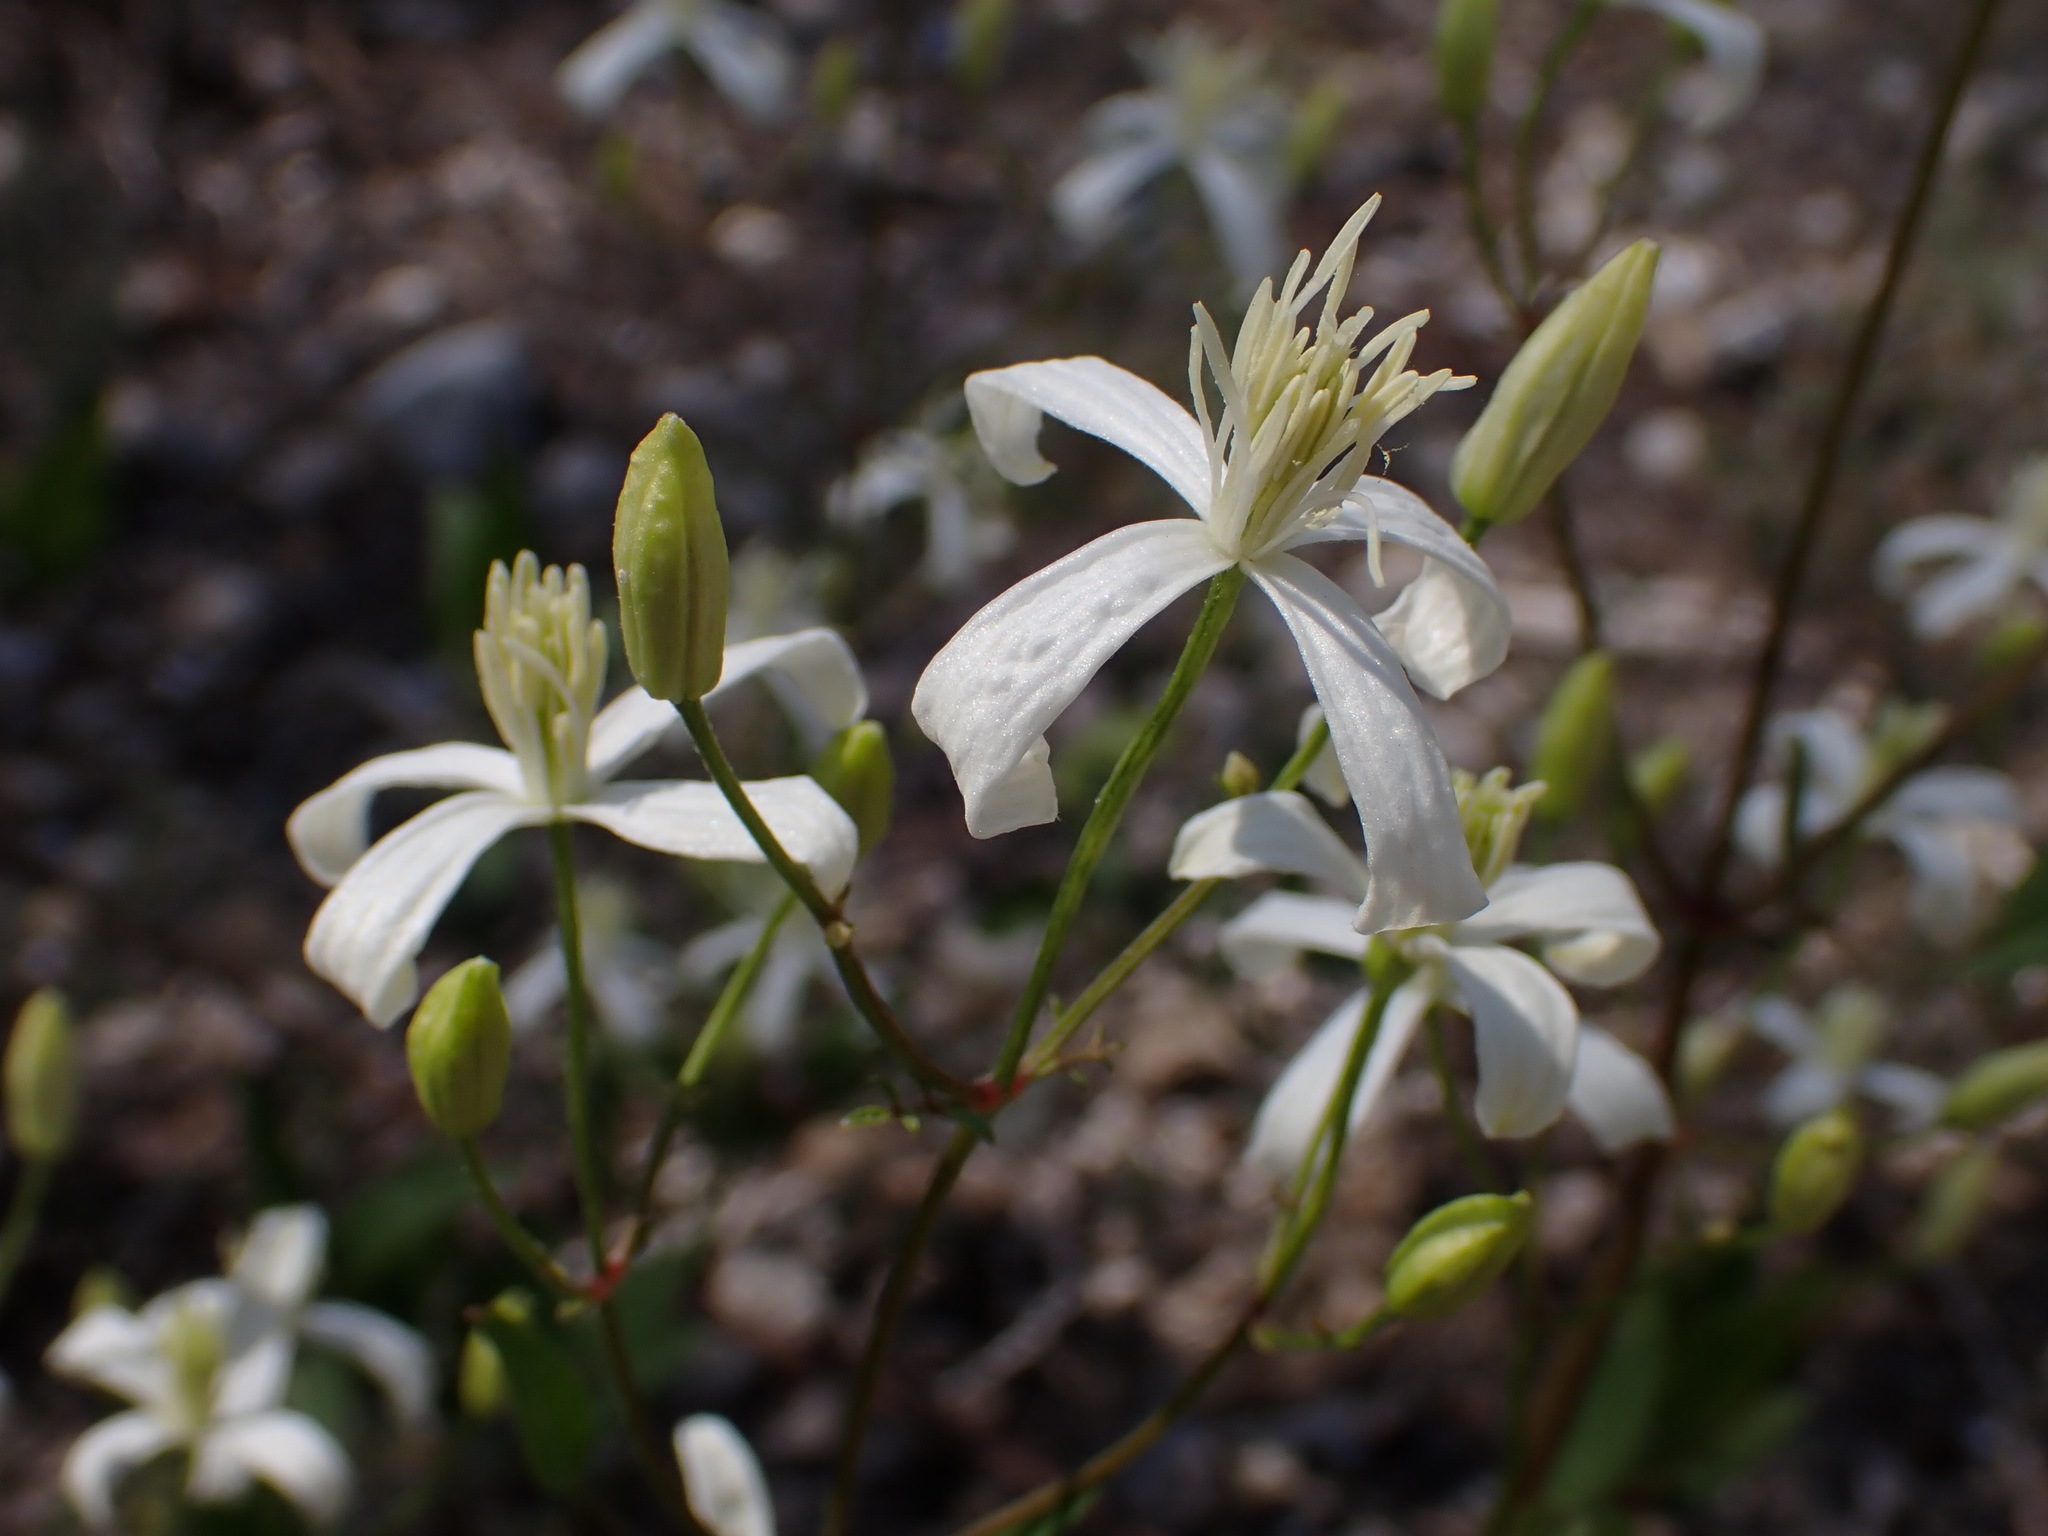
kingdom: Plantae
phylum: Tracheophyta
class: Magnoliopsida
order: Ranunculales
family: Ranunculaceae
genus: Clematis
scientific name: Clematis flammula
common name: Virgin's-bower
